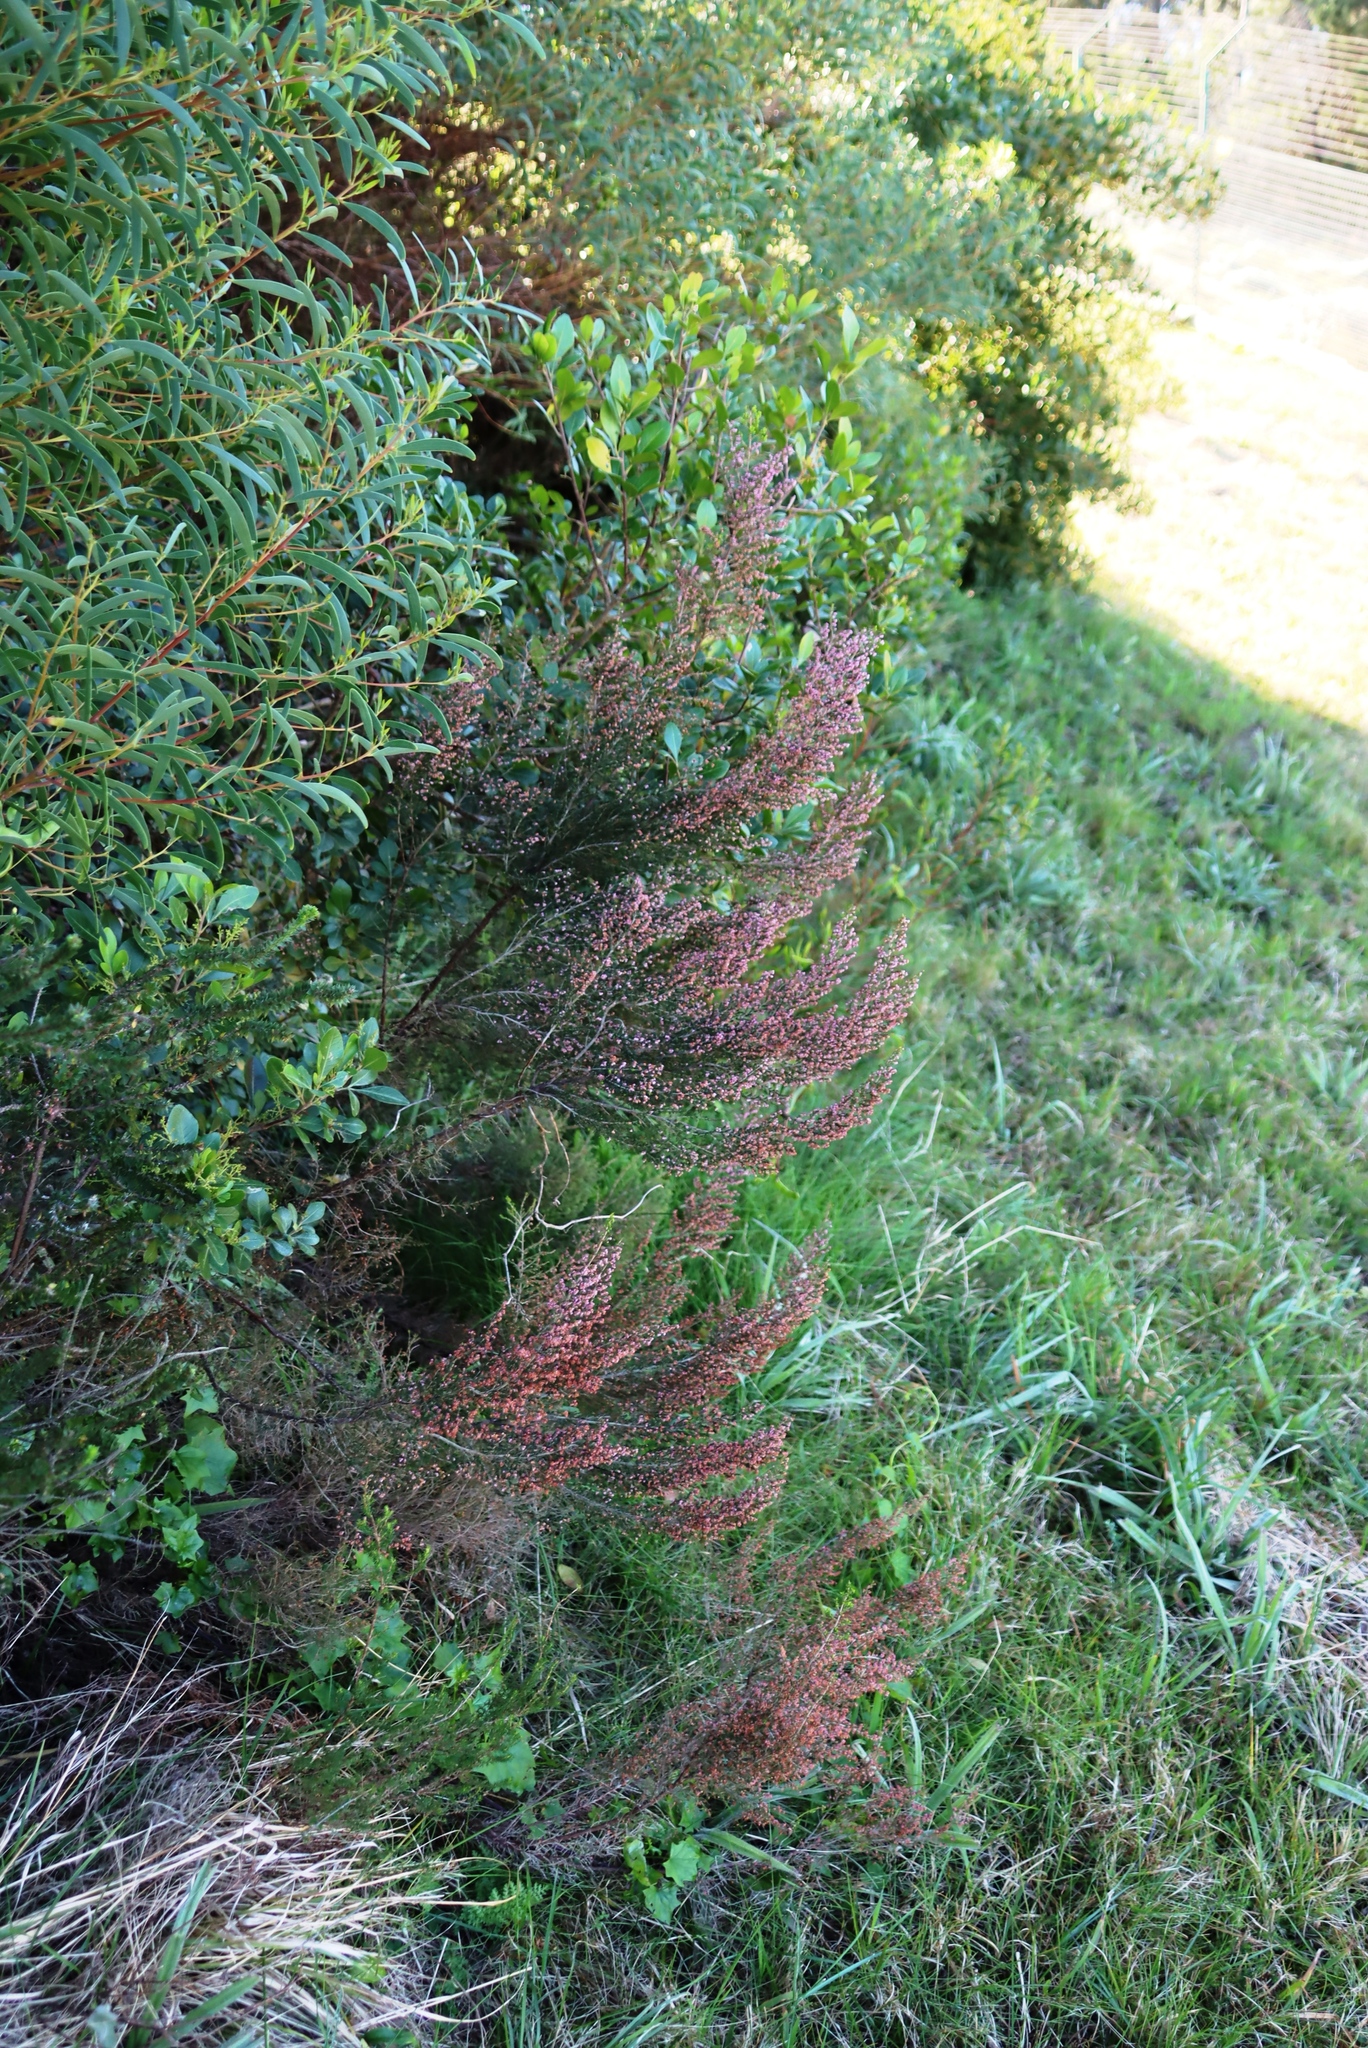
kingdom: Plantae
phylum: Tracheophyta
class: Magnoliopsida
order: Ericales
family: Ericaceae
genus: Erica
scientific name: Erica sparsa
